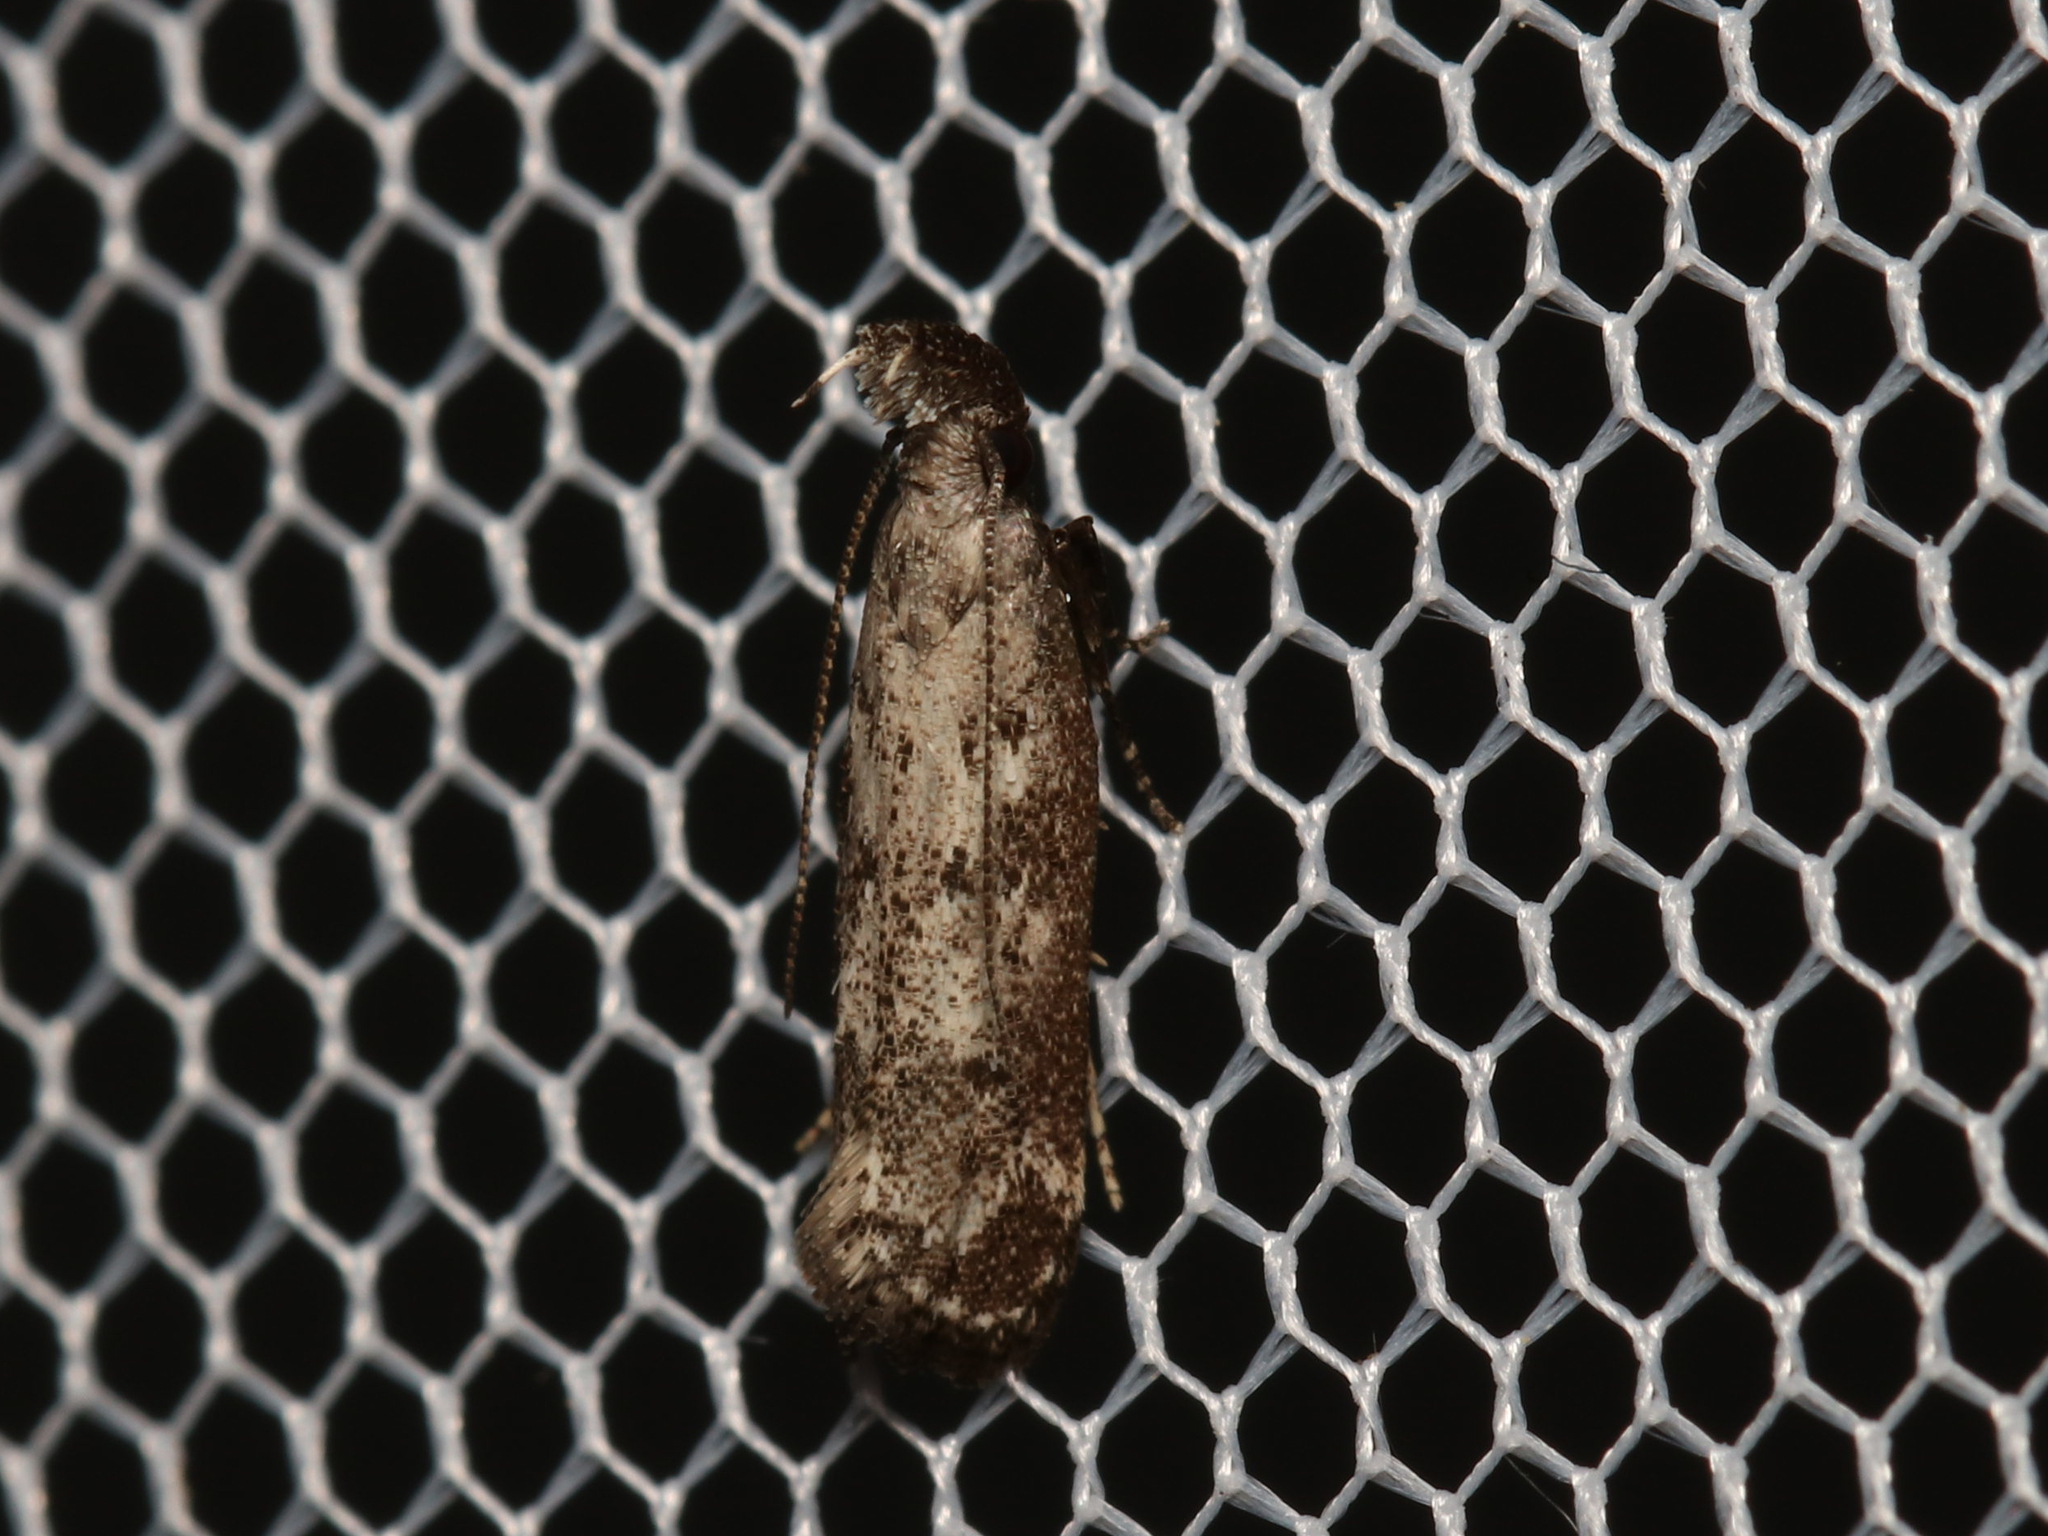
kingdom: Animalia
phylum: Arthropoda
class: Insecta
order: Lepidoptera
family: Gelechiidae
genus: Dichomeris
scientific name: Dichomeris inversella
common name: Inverse dichomeris moth
